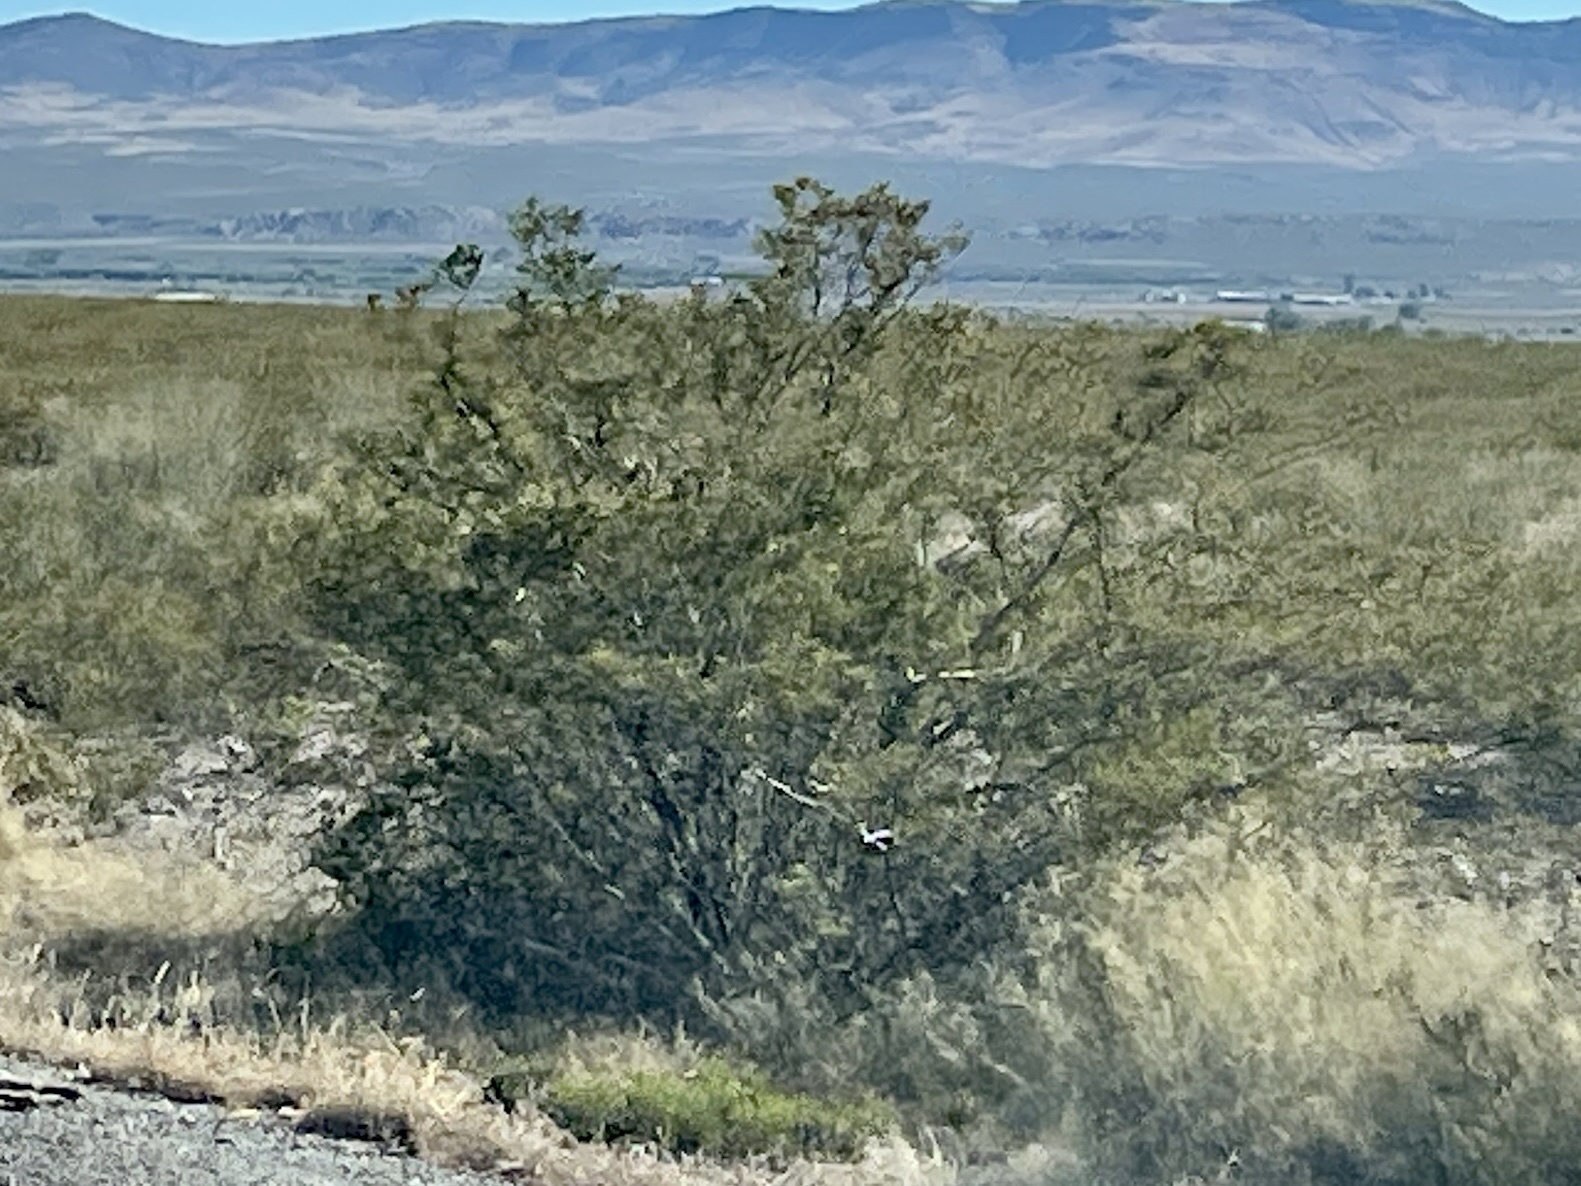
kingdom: Plantae
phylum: Tracheophyta
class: Magnoliopsida
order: Zygophyllales
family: Zygophyllaceae
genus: Larrea
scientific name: Larrea tridentata
